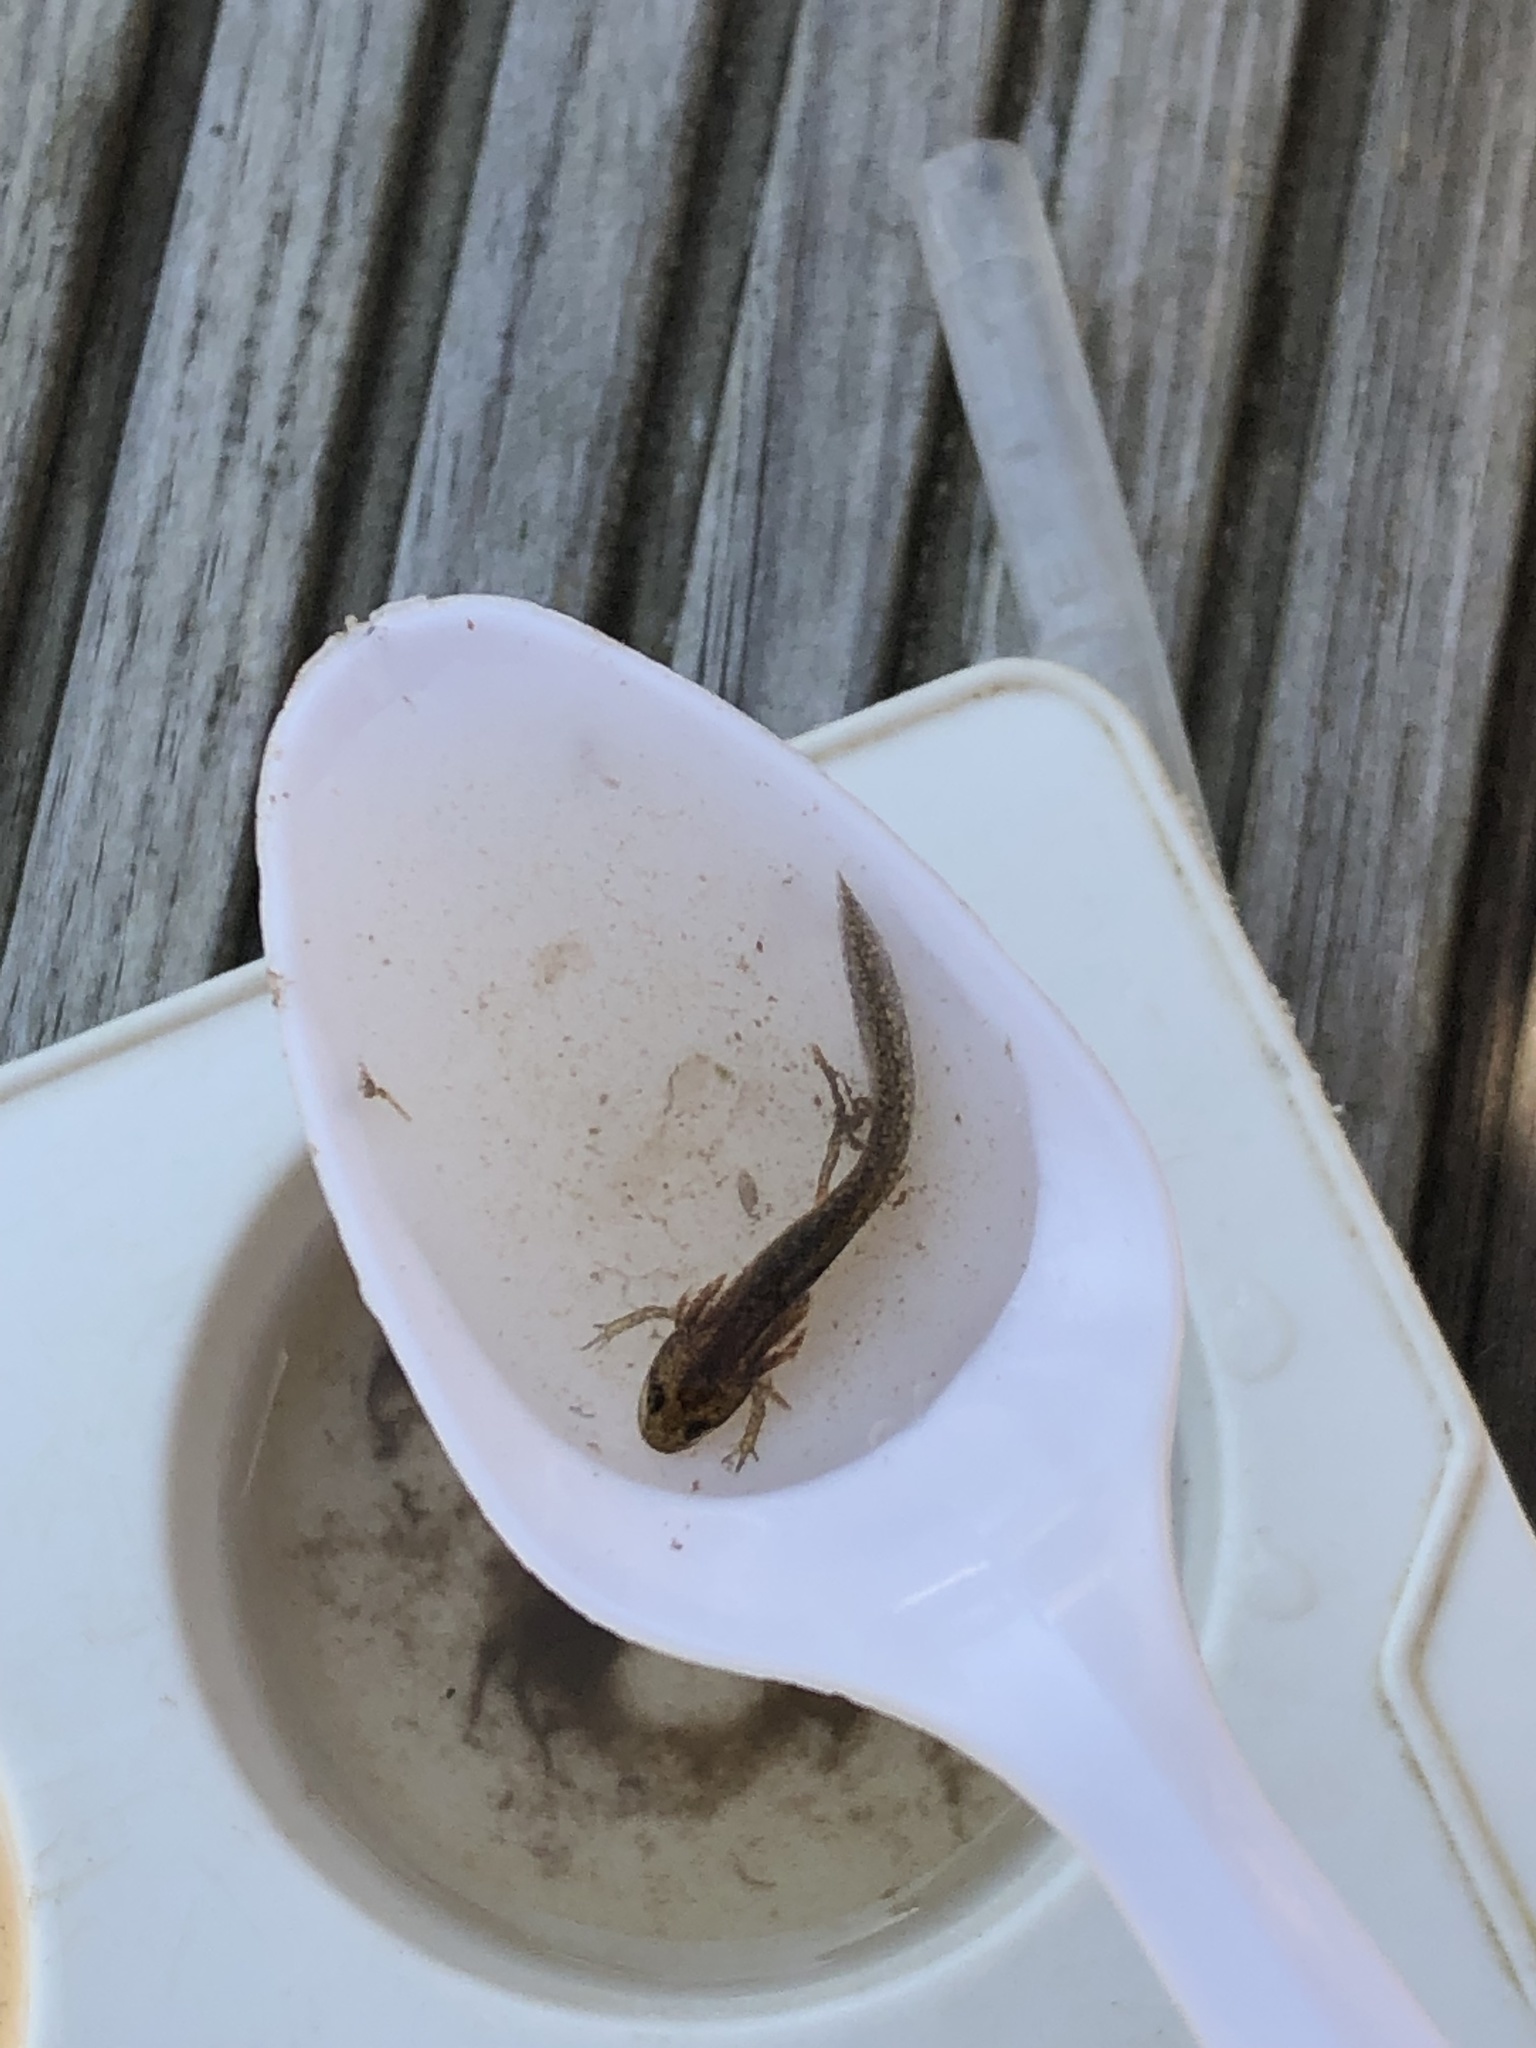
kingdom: Animalia
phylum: Chordata
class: Amphibia
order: Caudata
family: Salamandridae
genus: Lissotriton
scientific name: Lissotriton
